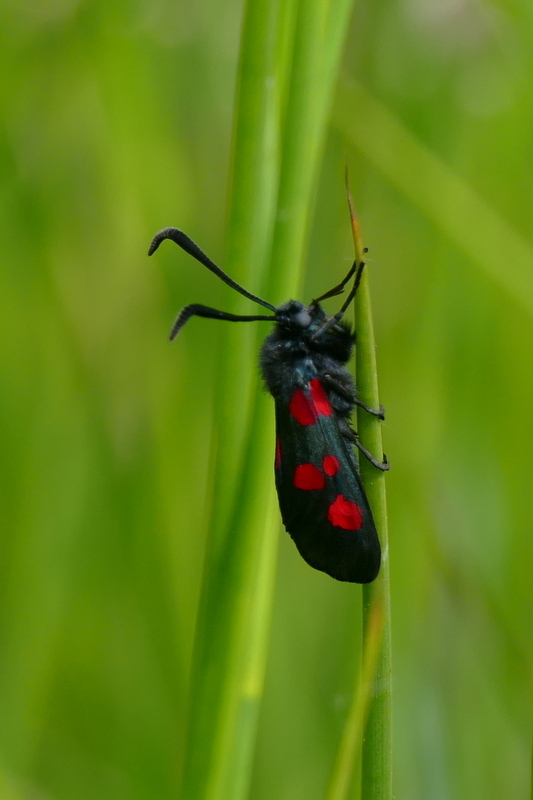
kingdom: Animalia
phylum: Arthropoda
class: Insecta
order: Lepidoptera
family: Zygaenidae
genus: Zygaena
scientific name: Zygaena lonicerae
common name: Narrow-bordered five-spot burnet
